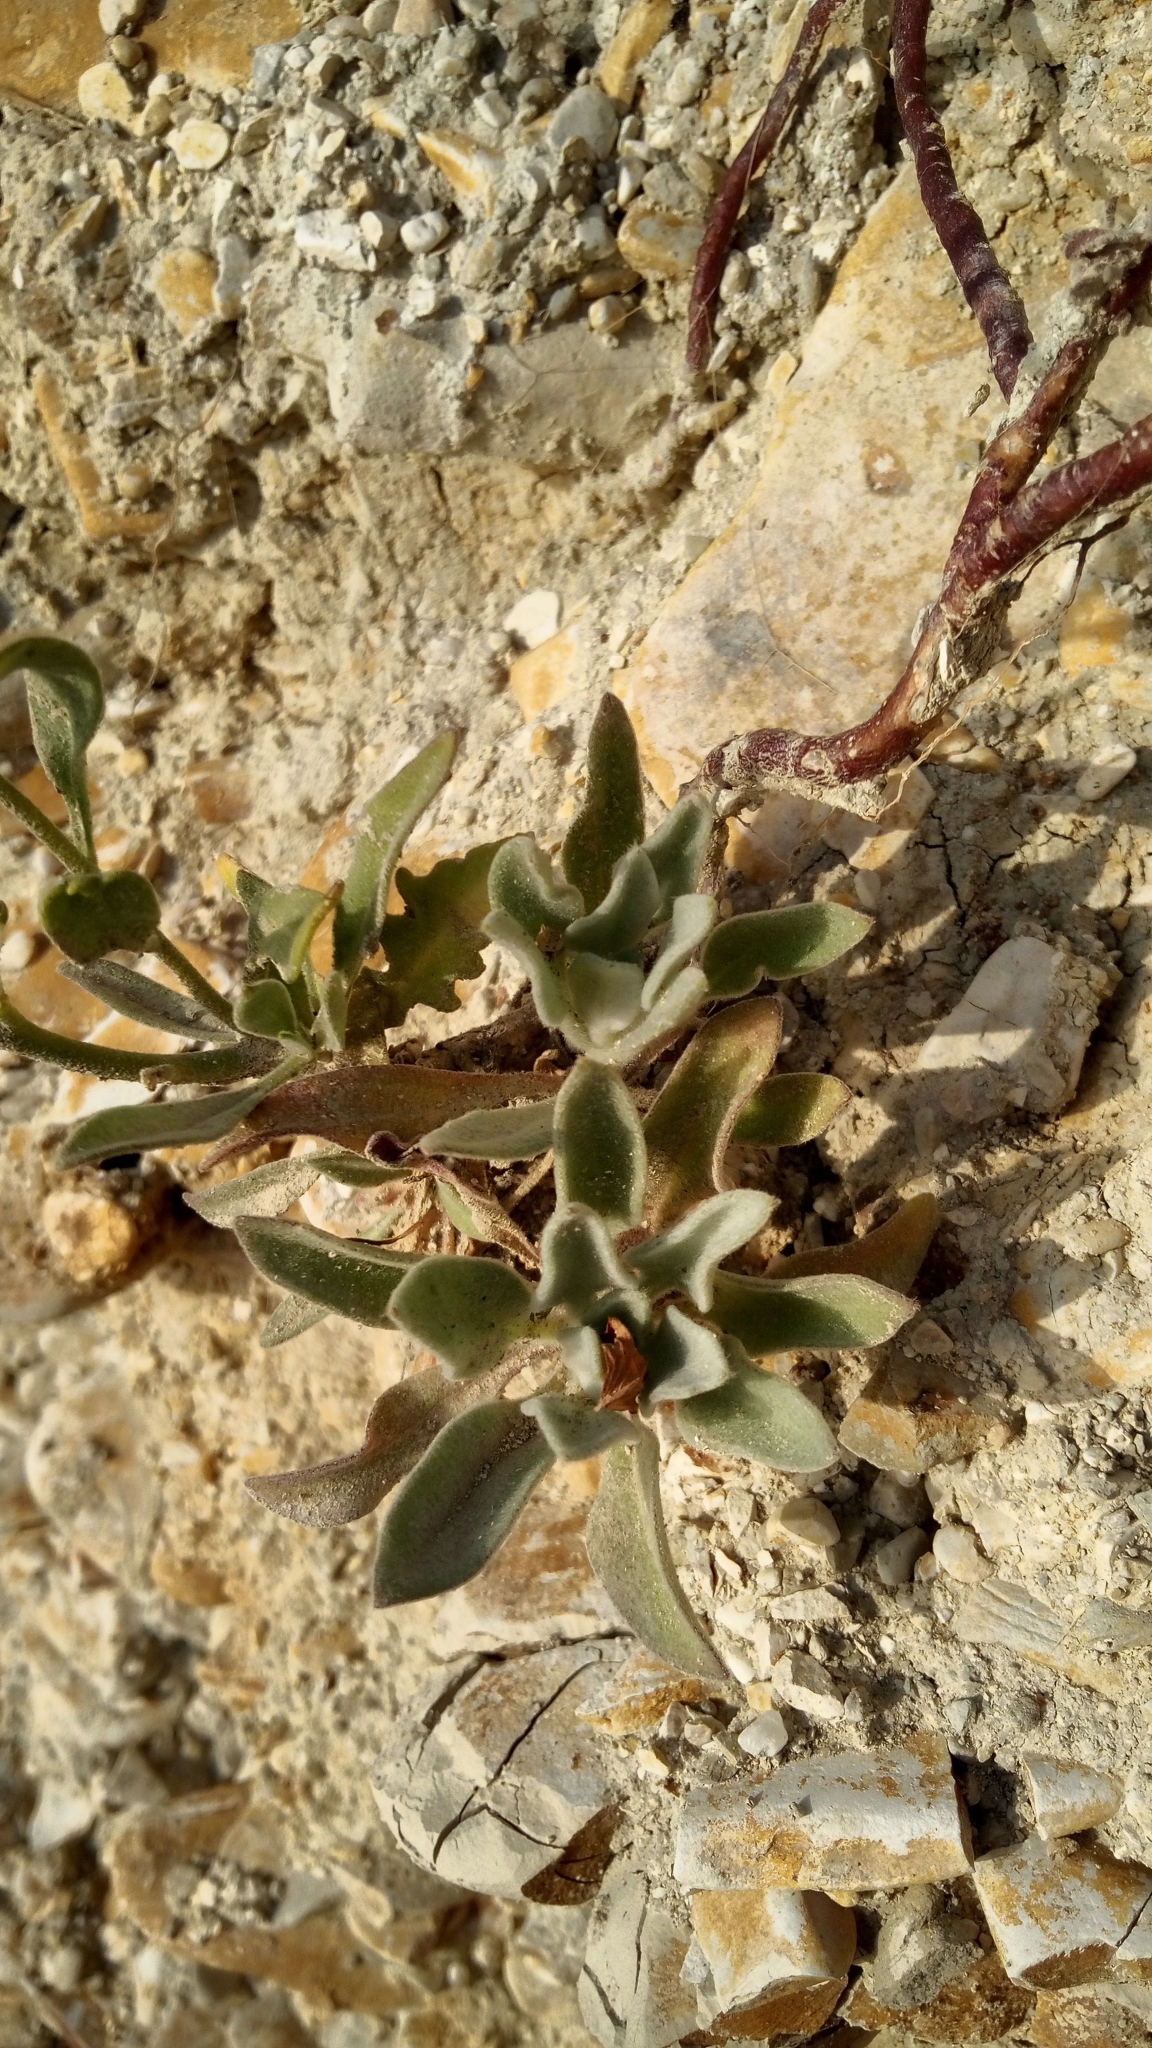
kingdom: Plantae
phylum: Tracheophyta
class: Magnoliopsida
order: Brassicales
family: Brassicaceae
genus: Matthiola
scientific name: Matthiola odoratissima
